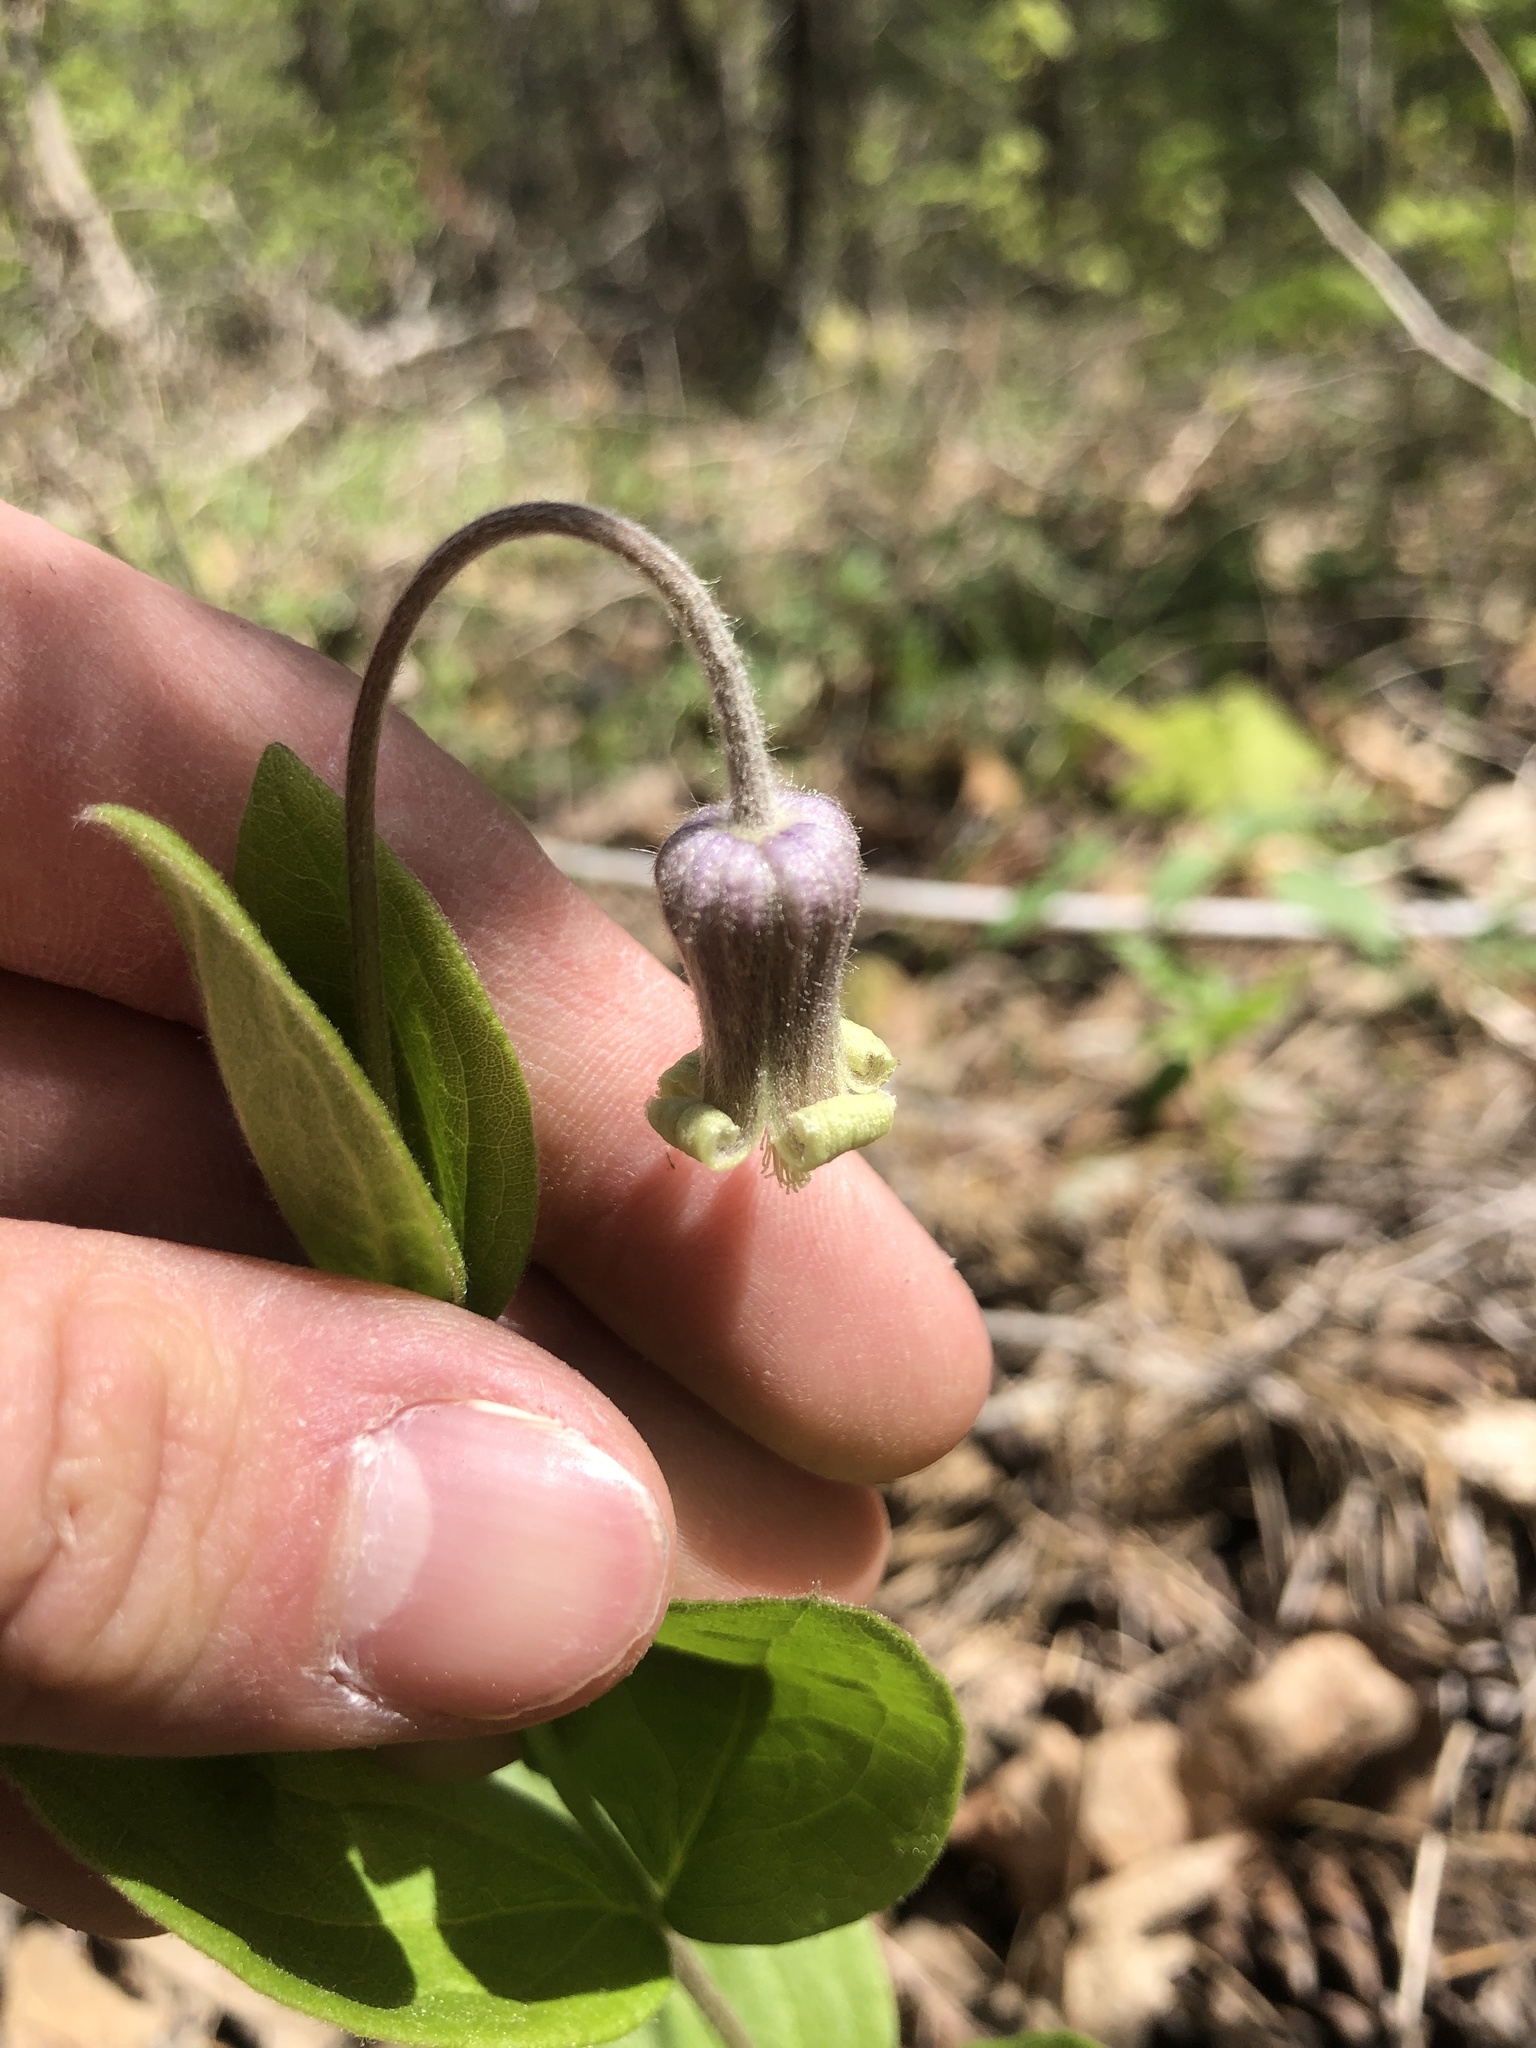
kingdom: Plantae
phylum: Tracheophyta
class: Magnoliopsida
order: Ranunculales
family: Ranunculaceae
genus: Clematis
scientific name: Clematis ochroleuca
